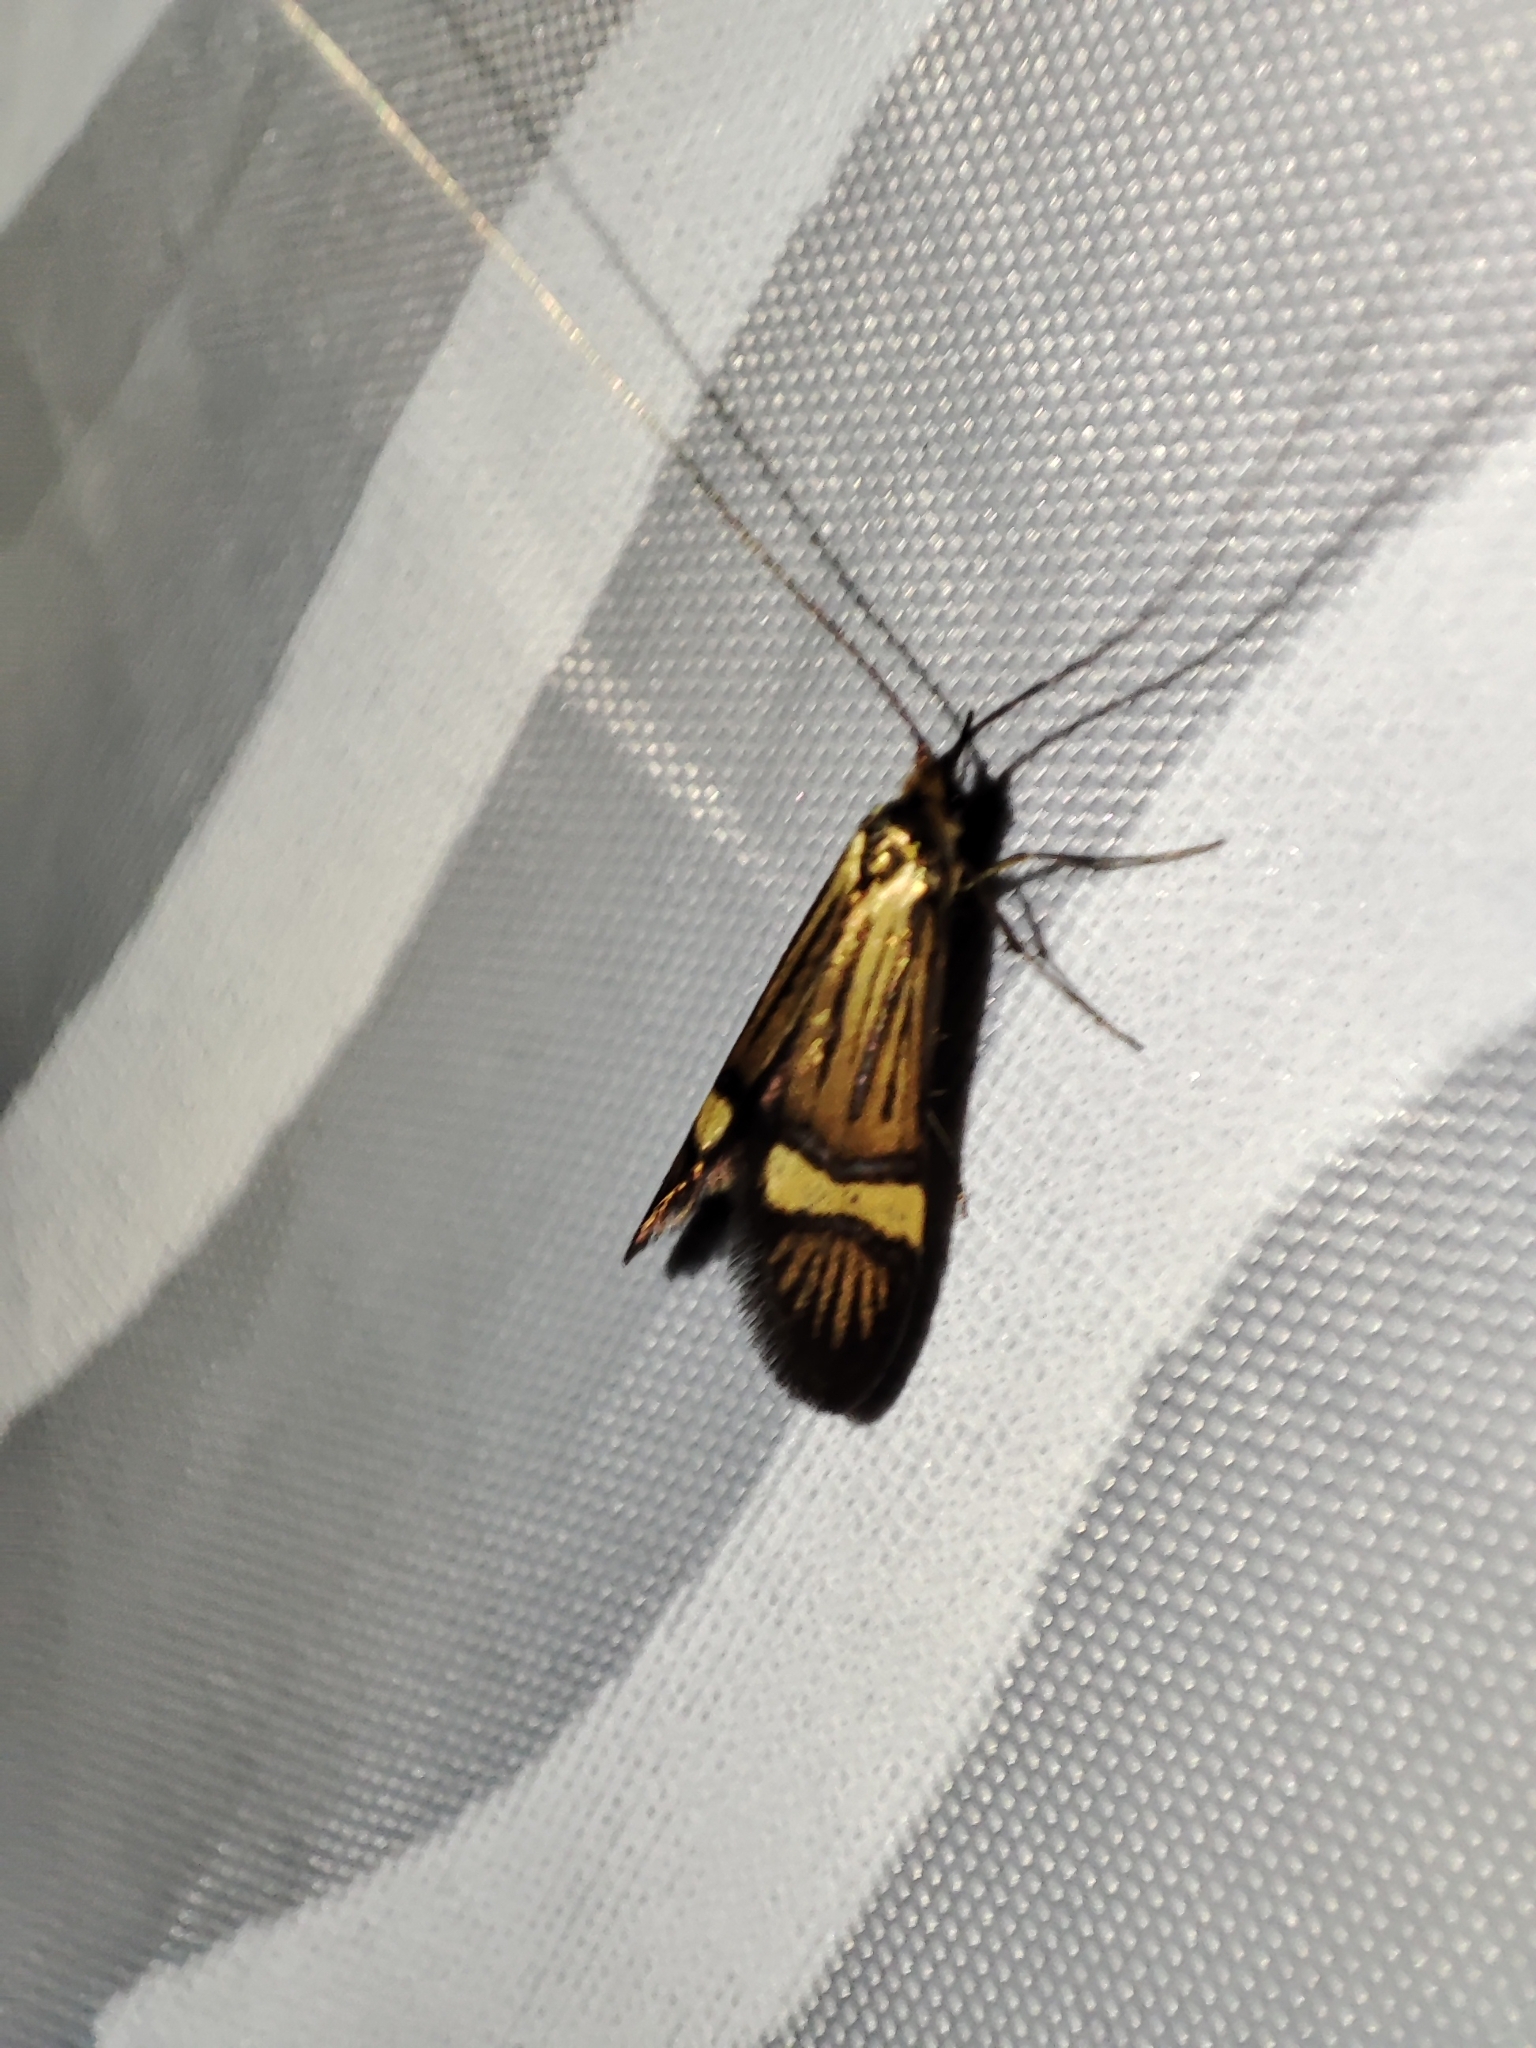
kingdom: Animalia
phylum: Arthropoda
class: Insecta
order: Lepidoptera
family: Adelidae
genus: Nemophora
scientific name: Nemophora degeerella
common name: Yellow-barred long-horn
